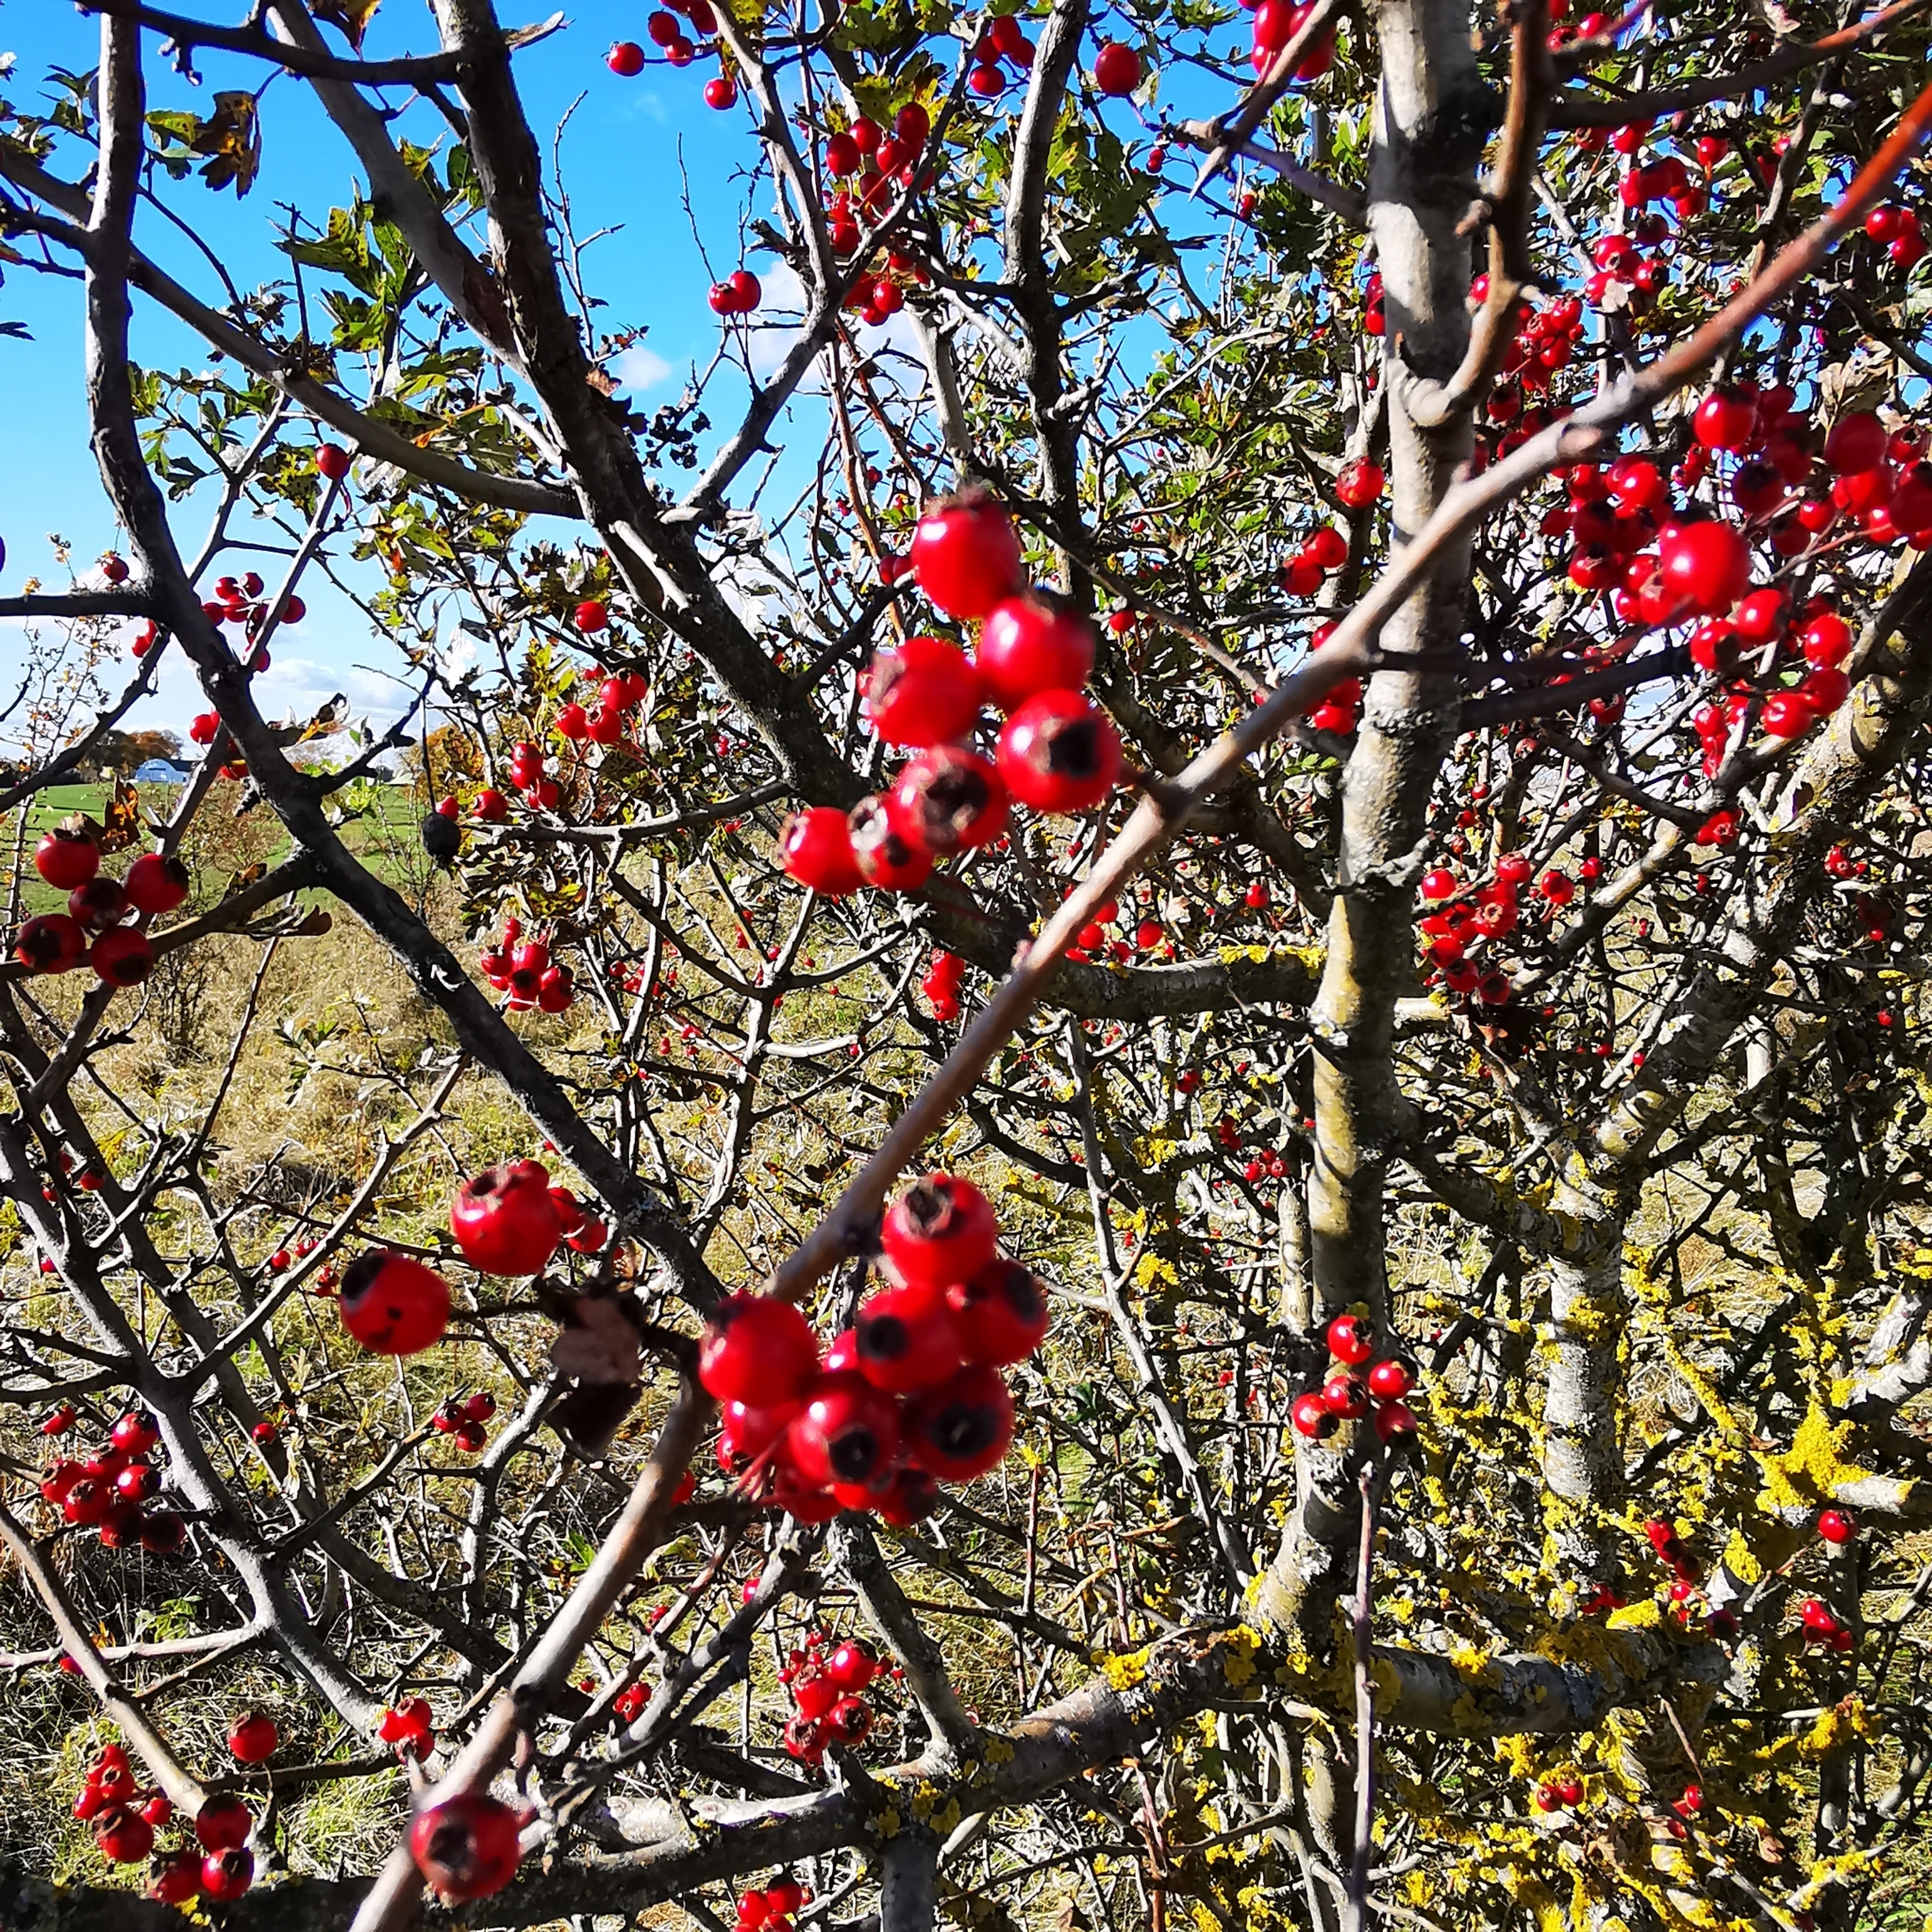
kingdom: Plantae
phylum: Tracheophyta
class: Magnoliopsida
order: Rosales
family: Rosaceae
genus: Crataegus
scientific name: Crataegus monogyna
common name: Hawthorn
